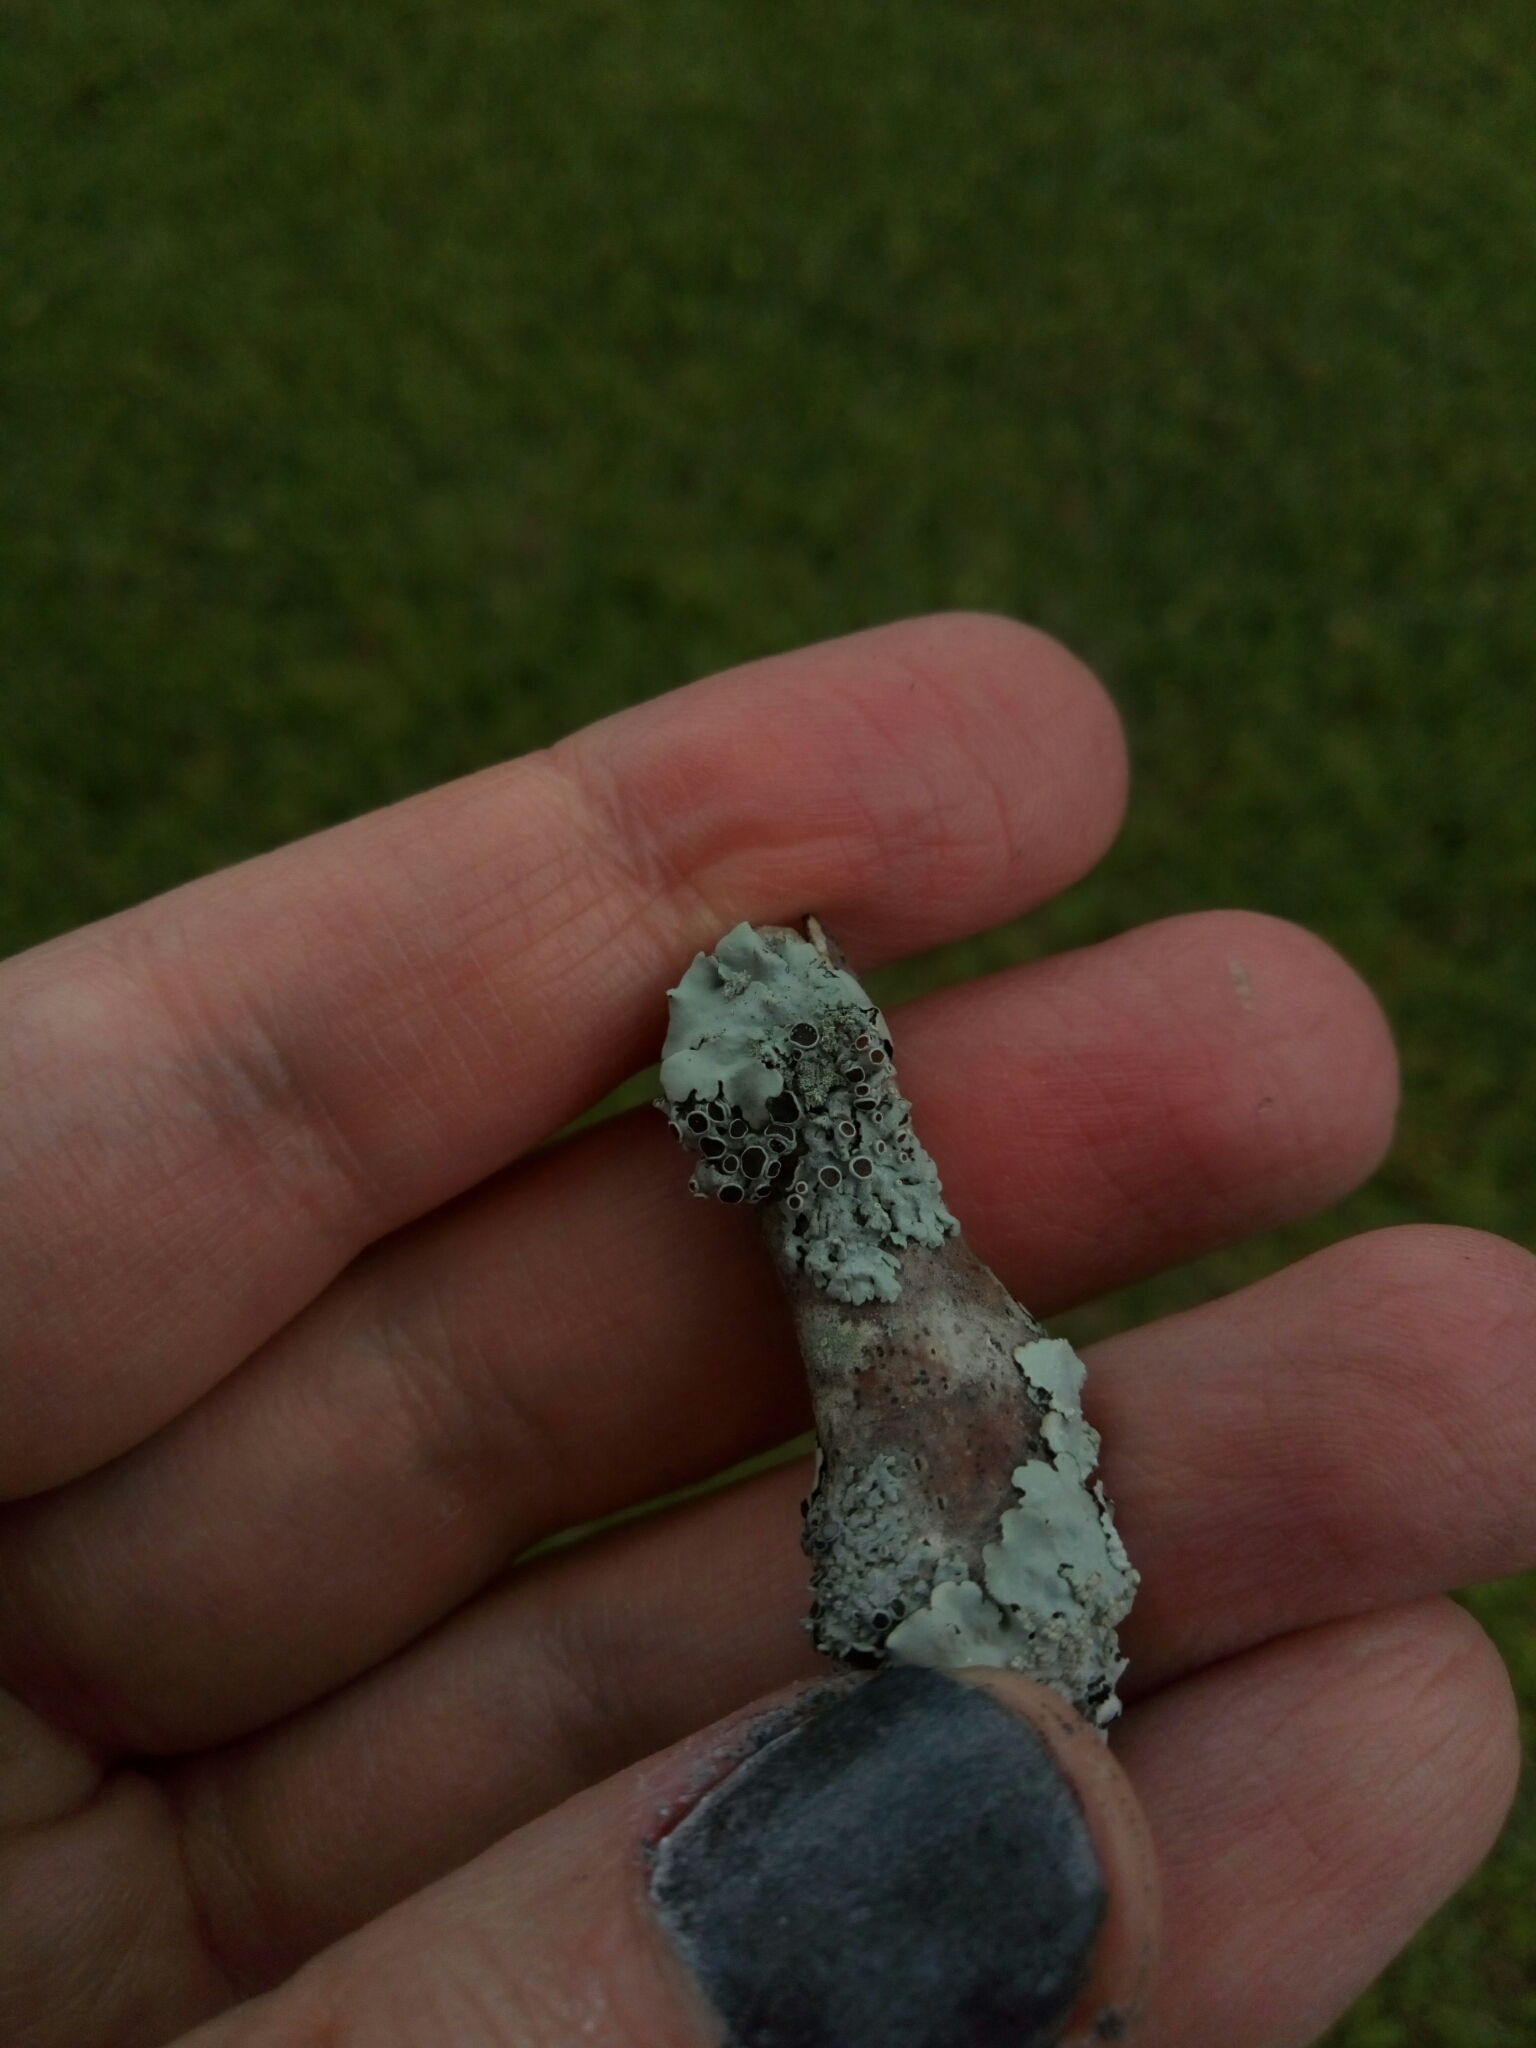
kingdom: Fungi
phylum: Ascomycota
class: Lecanoromycetes
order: Caliciales
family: Physciaceae
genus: Physcia
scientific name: Physcia stellaris
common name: Star rosette lichen
